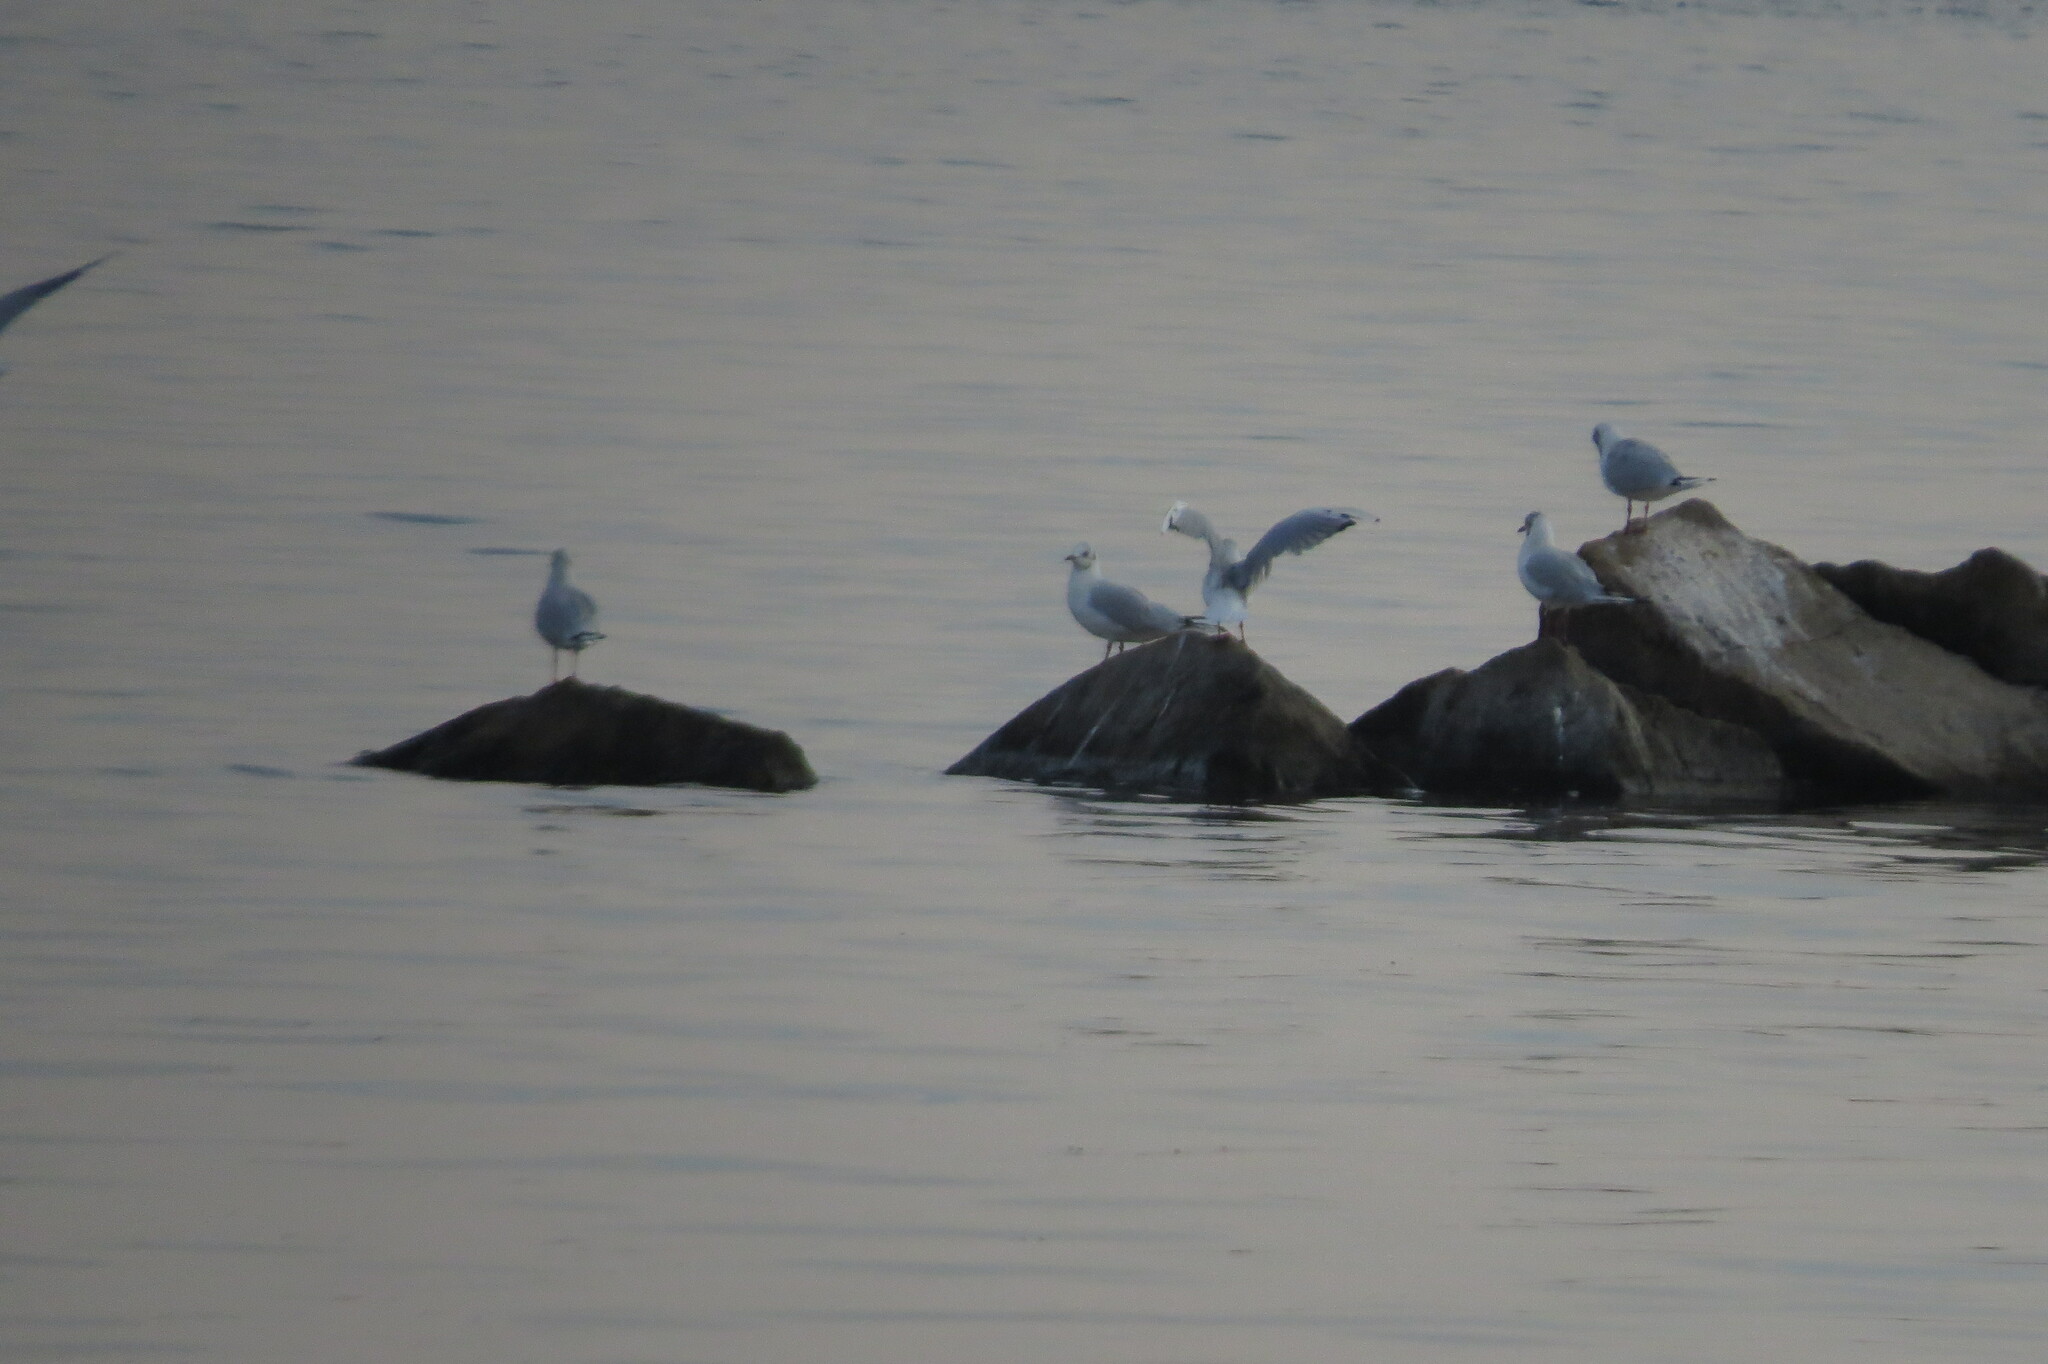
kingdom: Animalia
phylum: Chordata
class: Aves
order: Charadriiformes
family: Laridae
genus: Chroicocephalus
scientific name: Chroicocephalus ridibundus
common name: Black-headed gull
